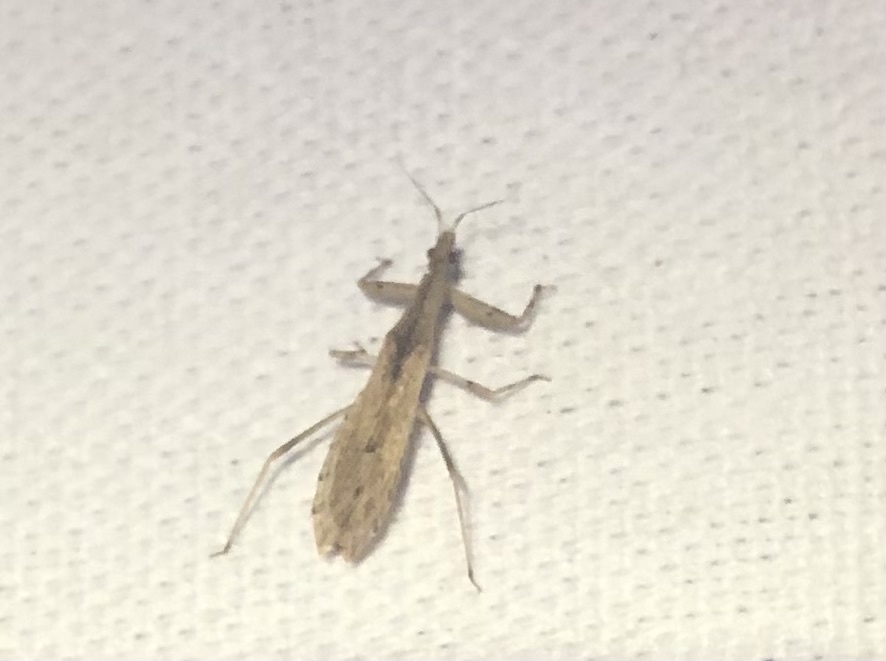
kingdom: Animalia
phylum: Arthropoda
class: Insecta
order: Hemiptera
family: Reduviidae
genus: Ctenotrachelus
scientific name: Ctenotrachelus shermani
